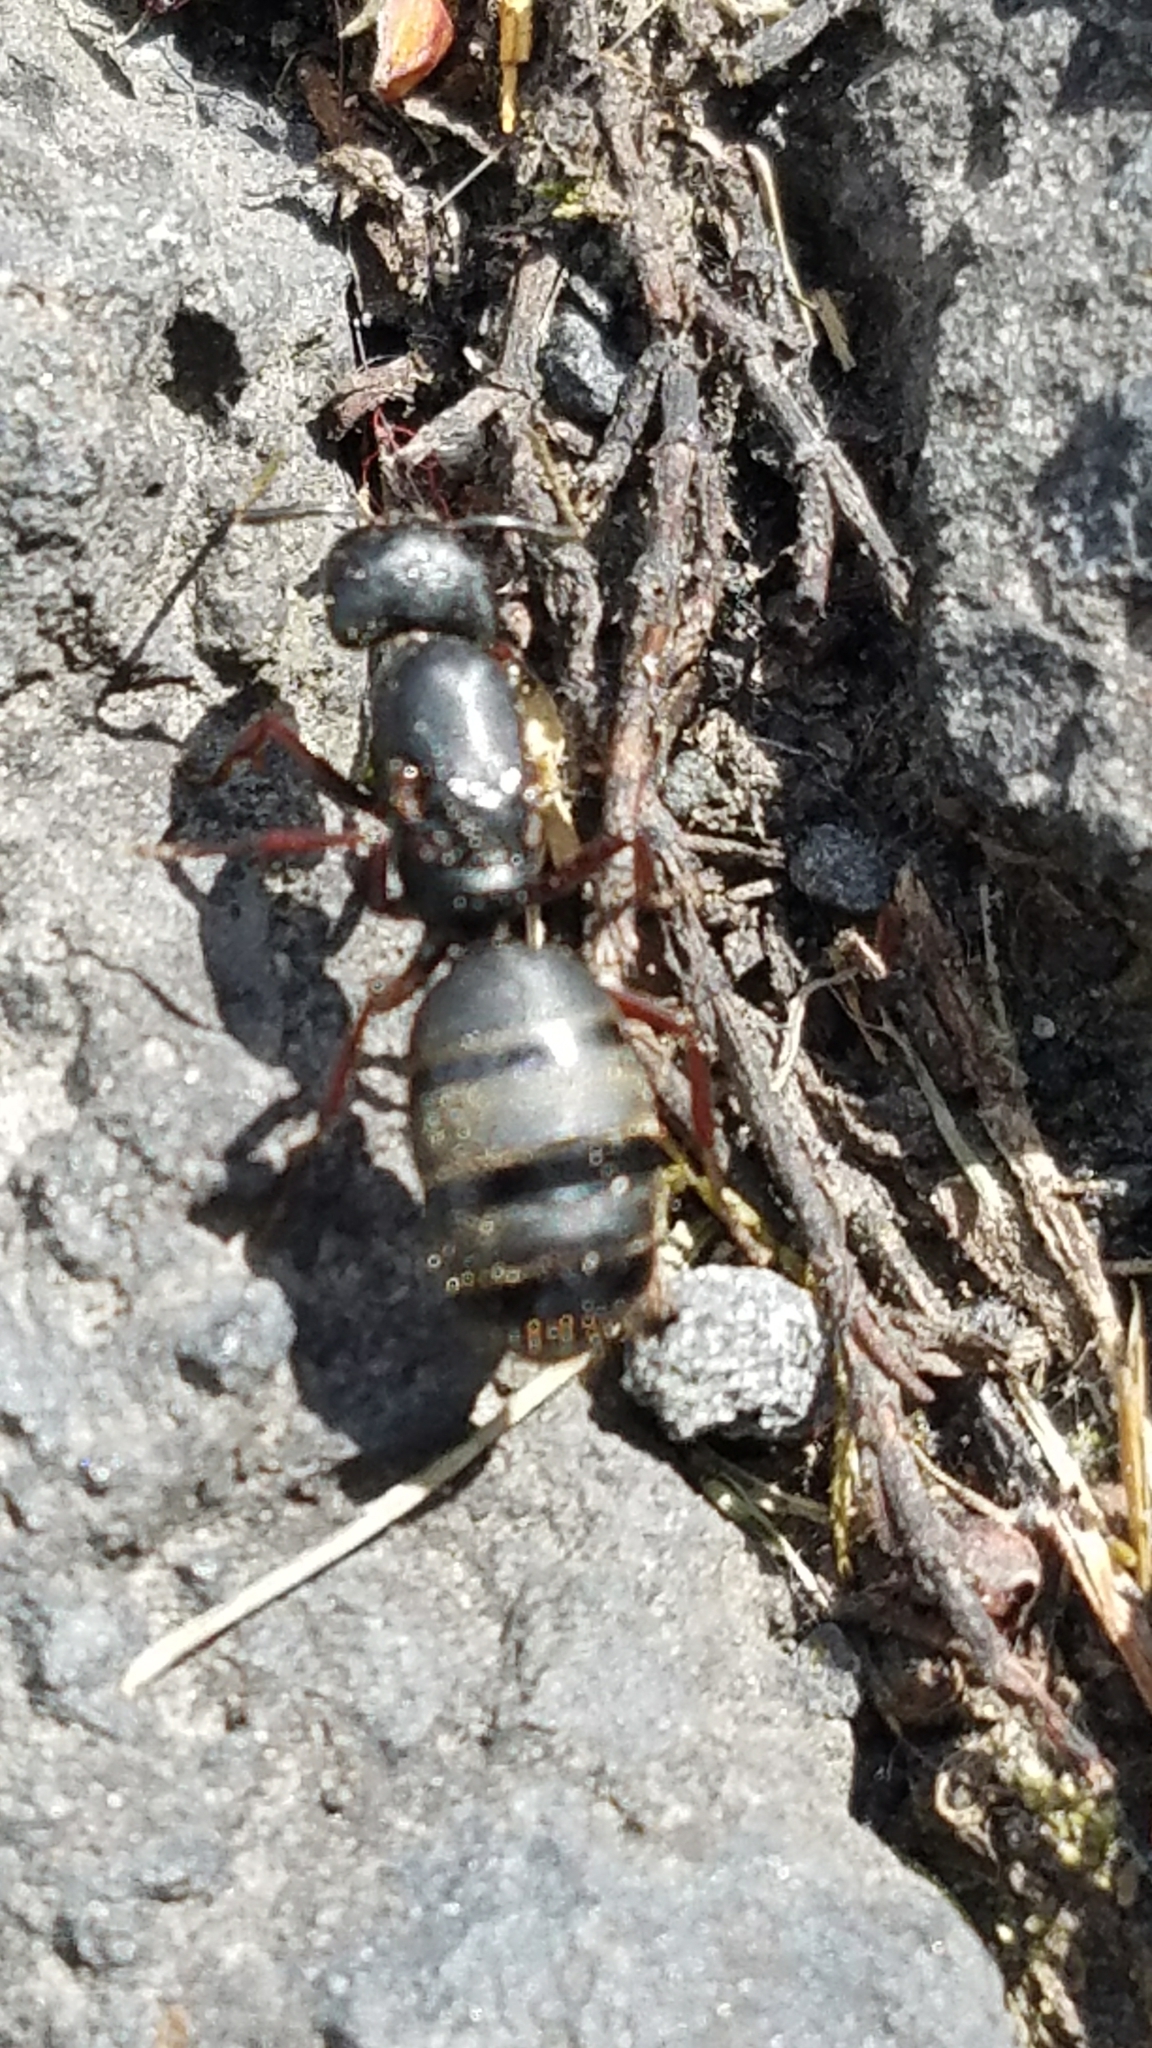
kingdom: Animalia
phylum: Arthropoda
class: Insecta
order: Hymenoptera
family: Formicidae
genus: Camponotus
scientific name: Camponotus modoc
